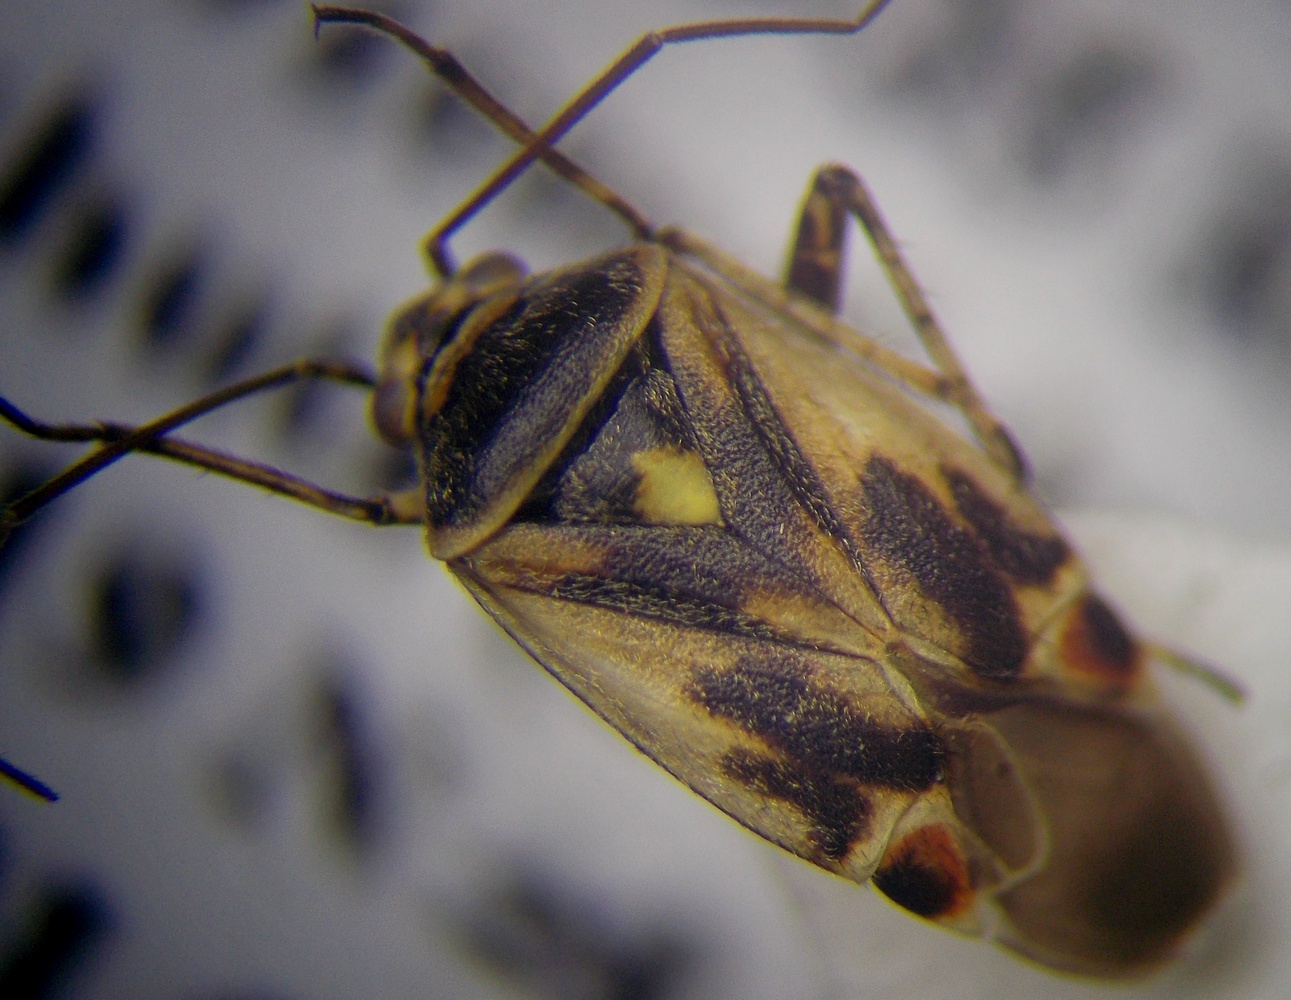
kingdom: Animalia
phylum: Arthropoda
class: Insecta
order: Hemiptera
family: Miridae
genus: Polymerus
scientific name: Polymerus cognatus
